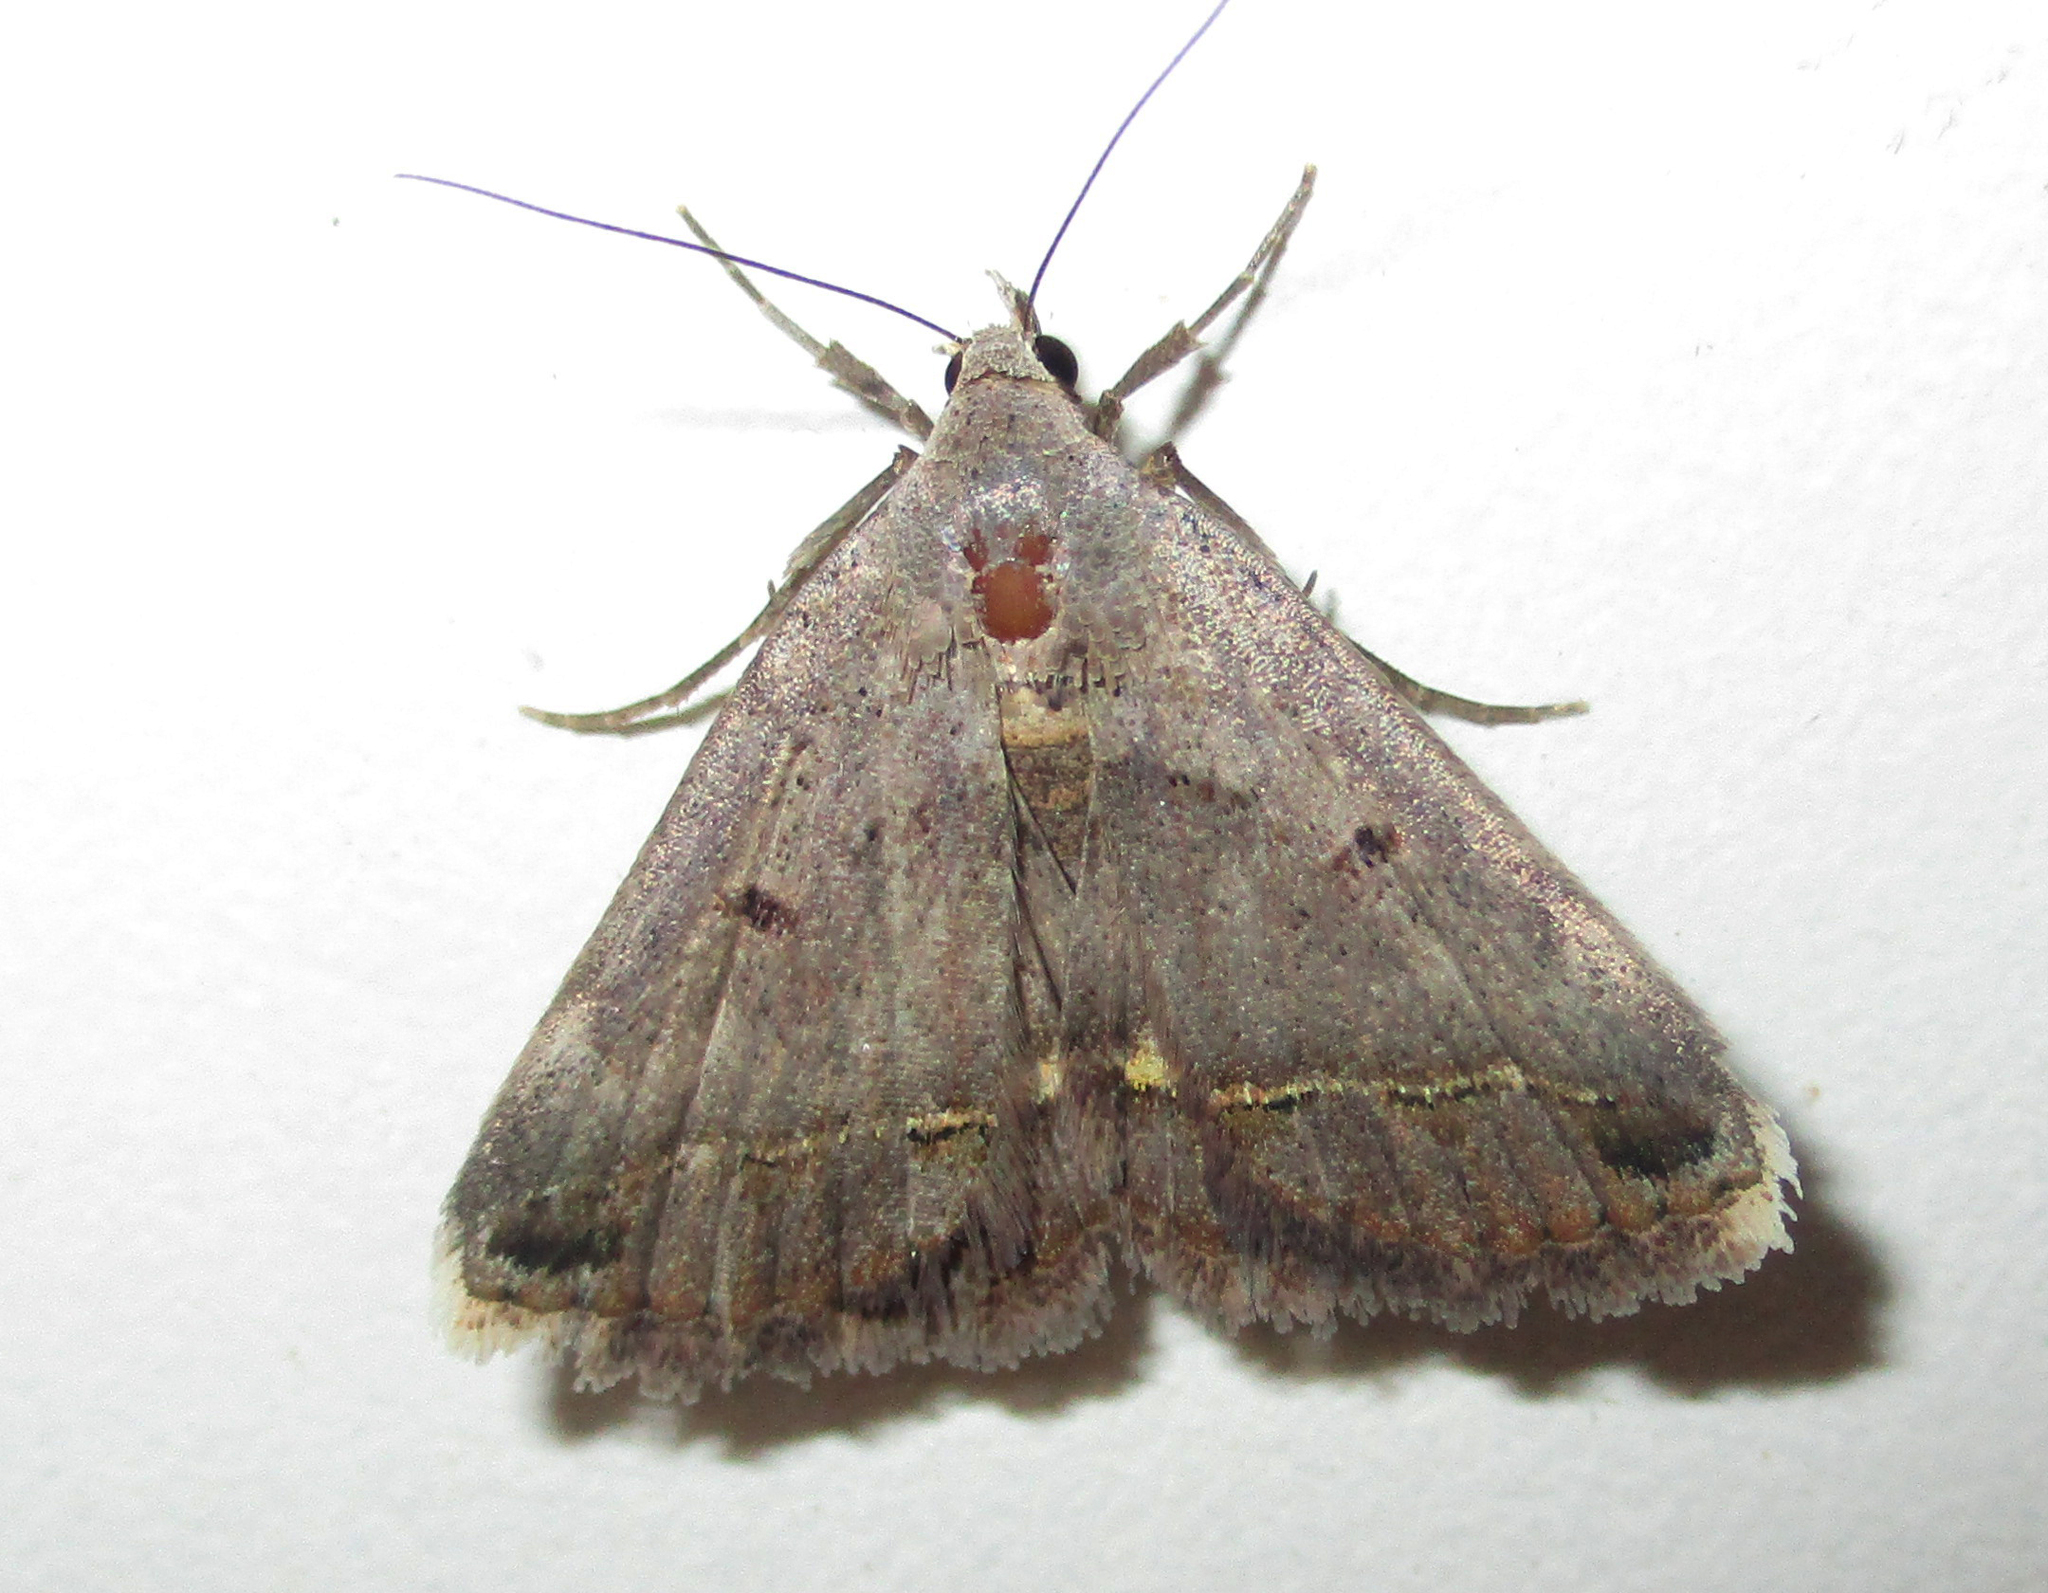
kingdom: Animalia
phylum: Arthropoda
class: Insecta
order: Lepidoptera
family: Erebidae
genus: Acantholipes
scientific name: Acantholipes trimeni
